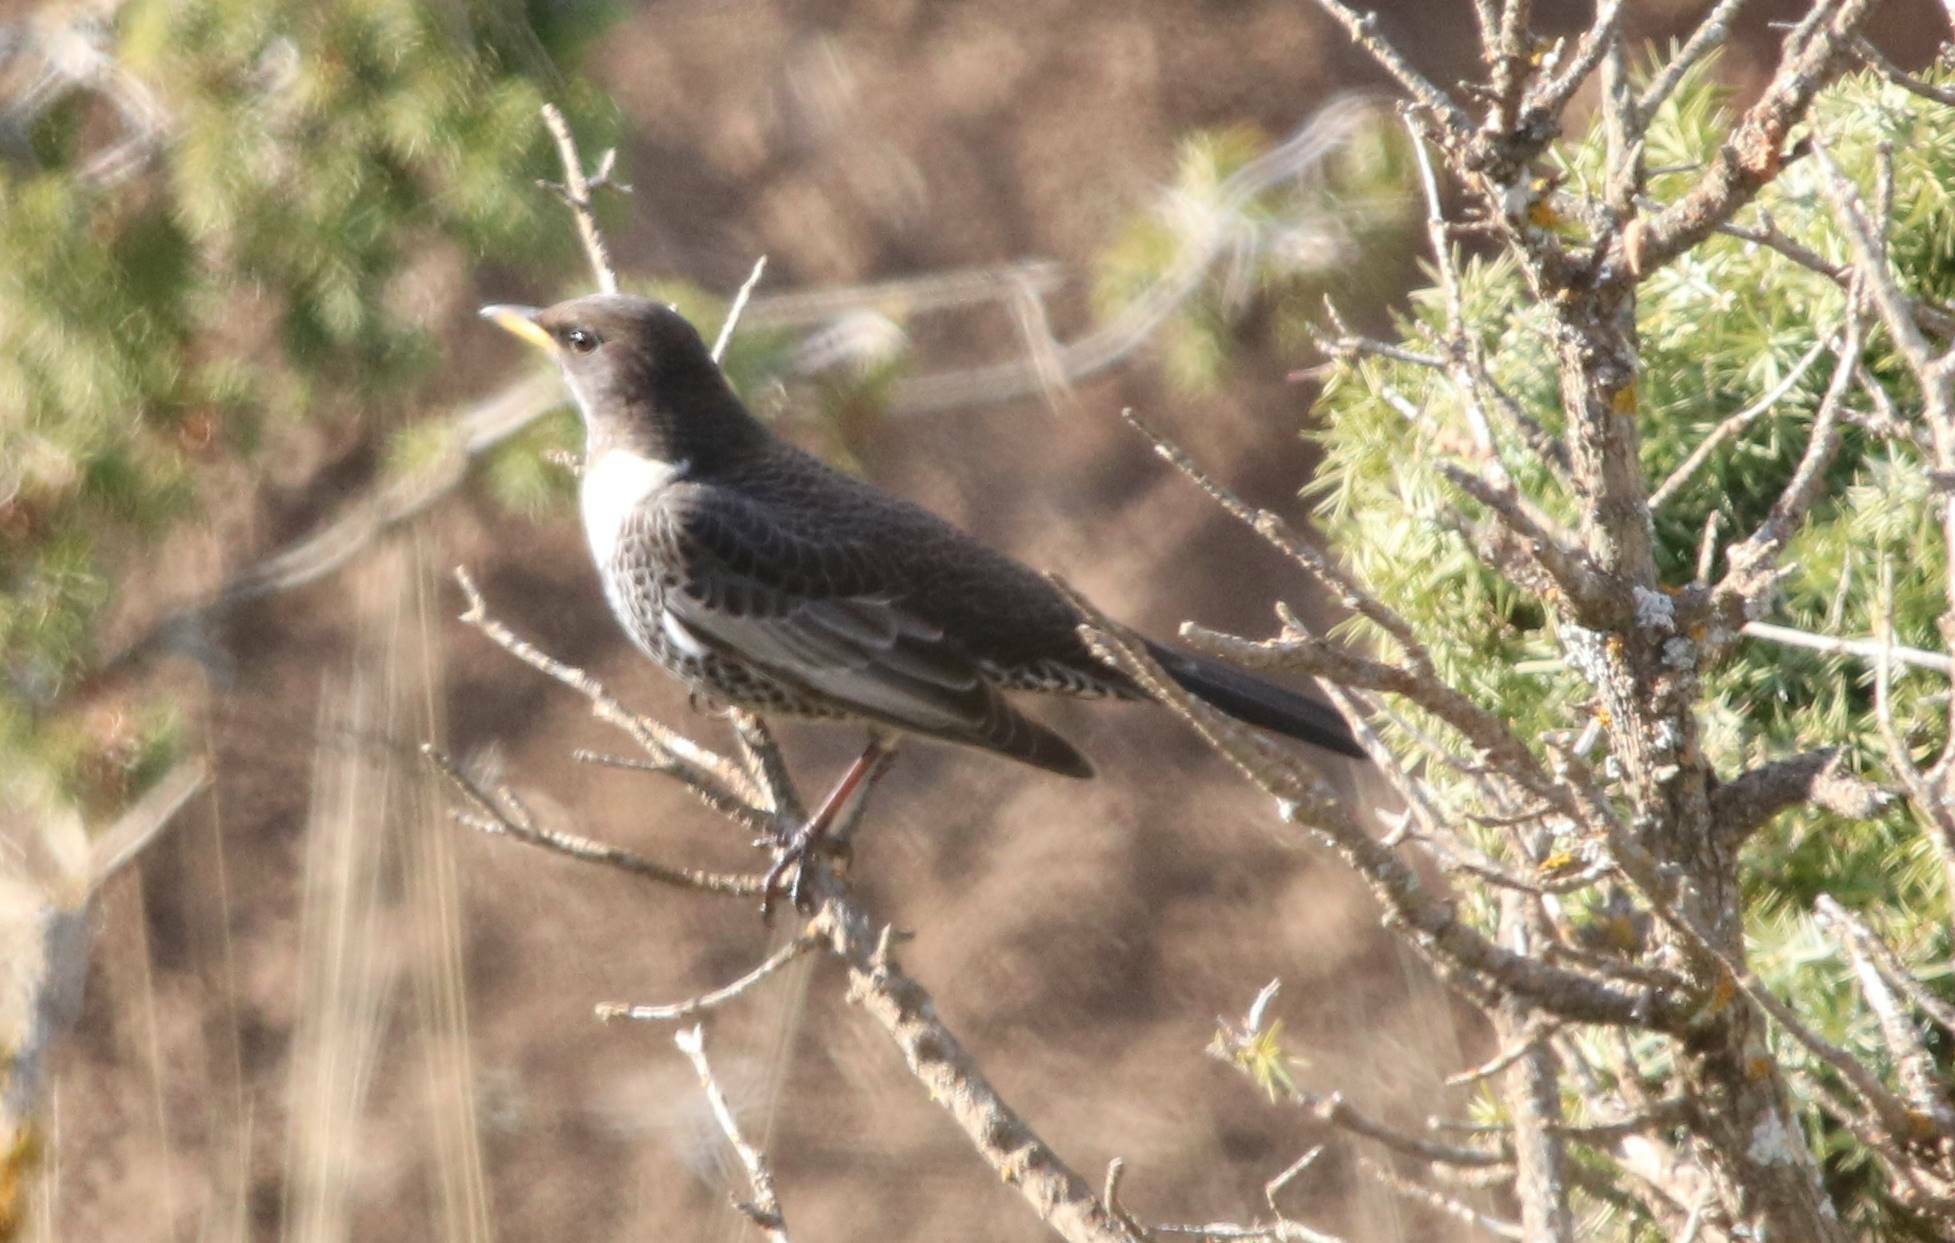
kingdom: Animalia
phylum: Chordata
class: Aves
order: Passeriformes
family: Turdidae
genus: Turdus
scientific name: Turdus torquatus
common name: Ring ouzel
